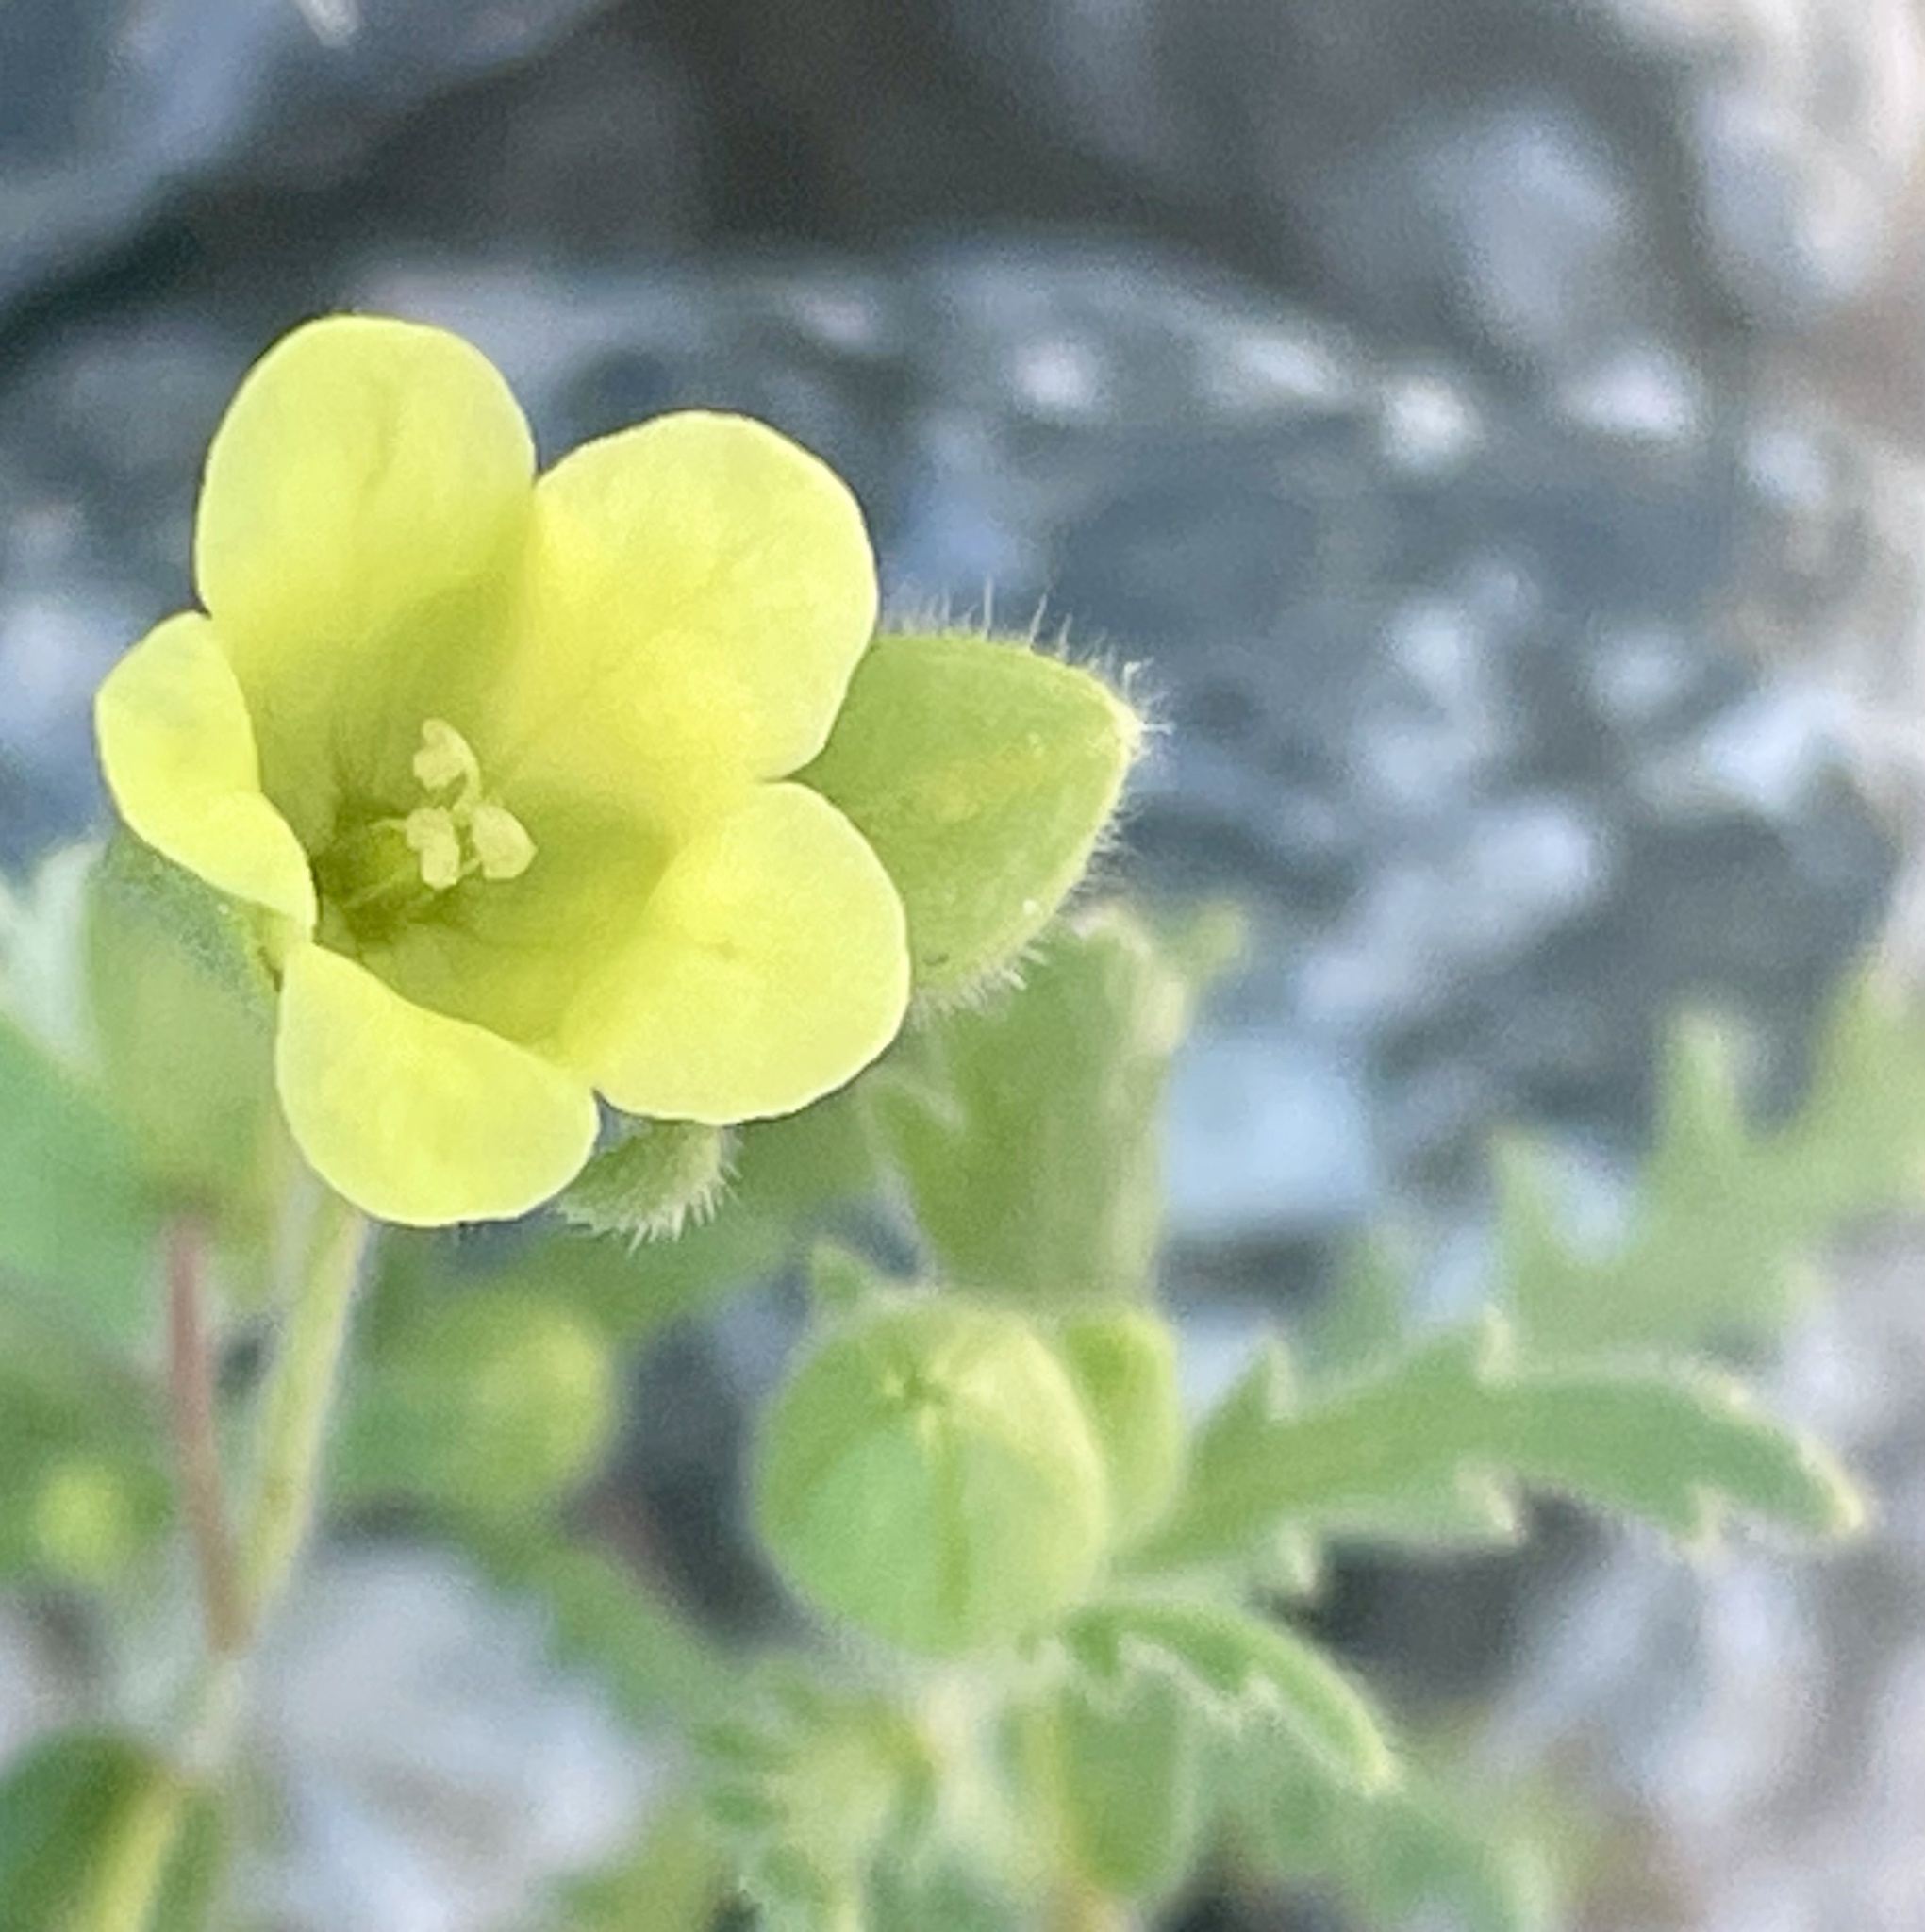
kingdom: Plantae
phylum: Tracheophyta
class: Magnoliopsida
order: Boraginales
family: Hydrophyllaceae
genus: Emmenanthe
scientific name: Emmenanthe penduliflora
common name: Whispering-bells
